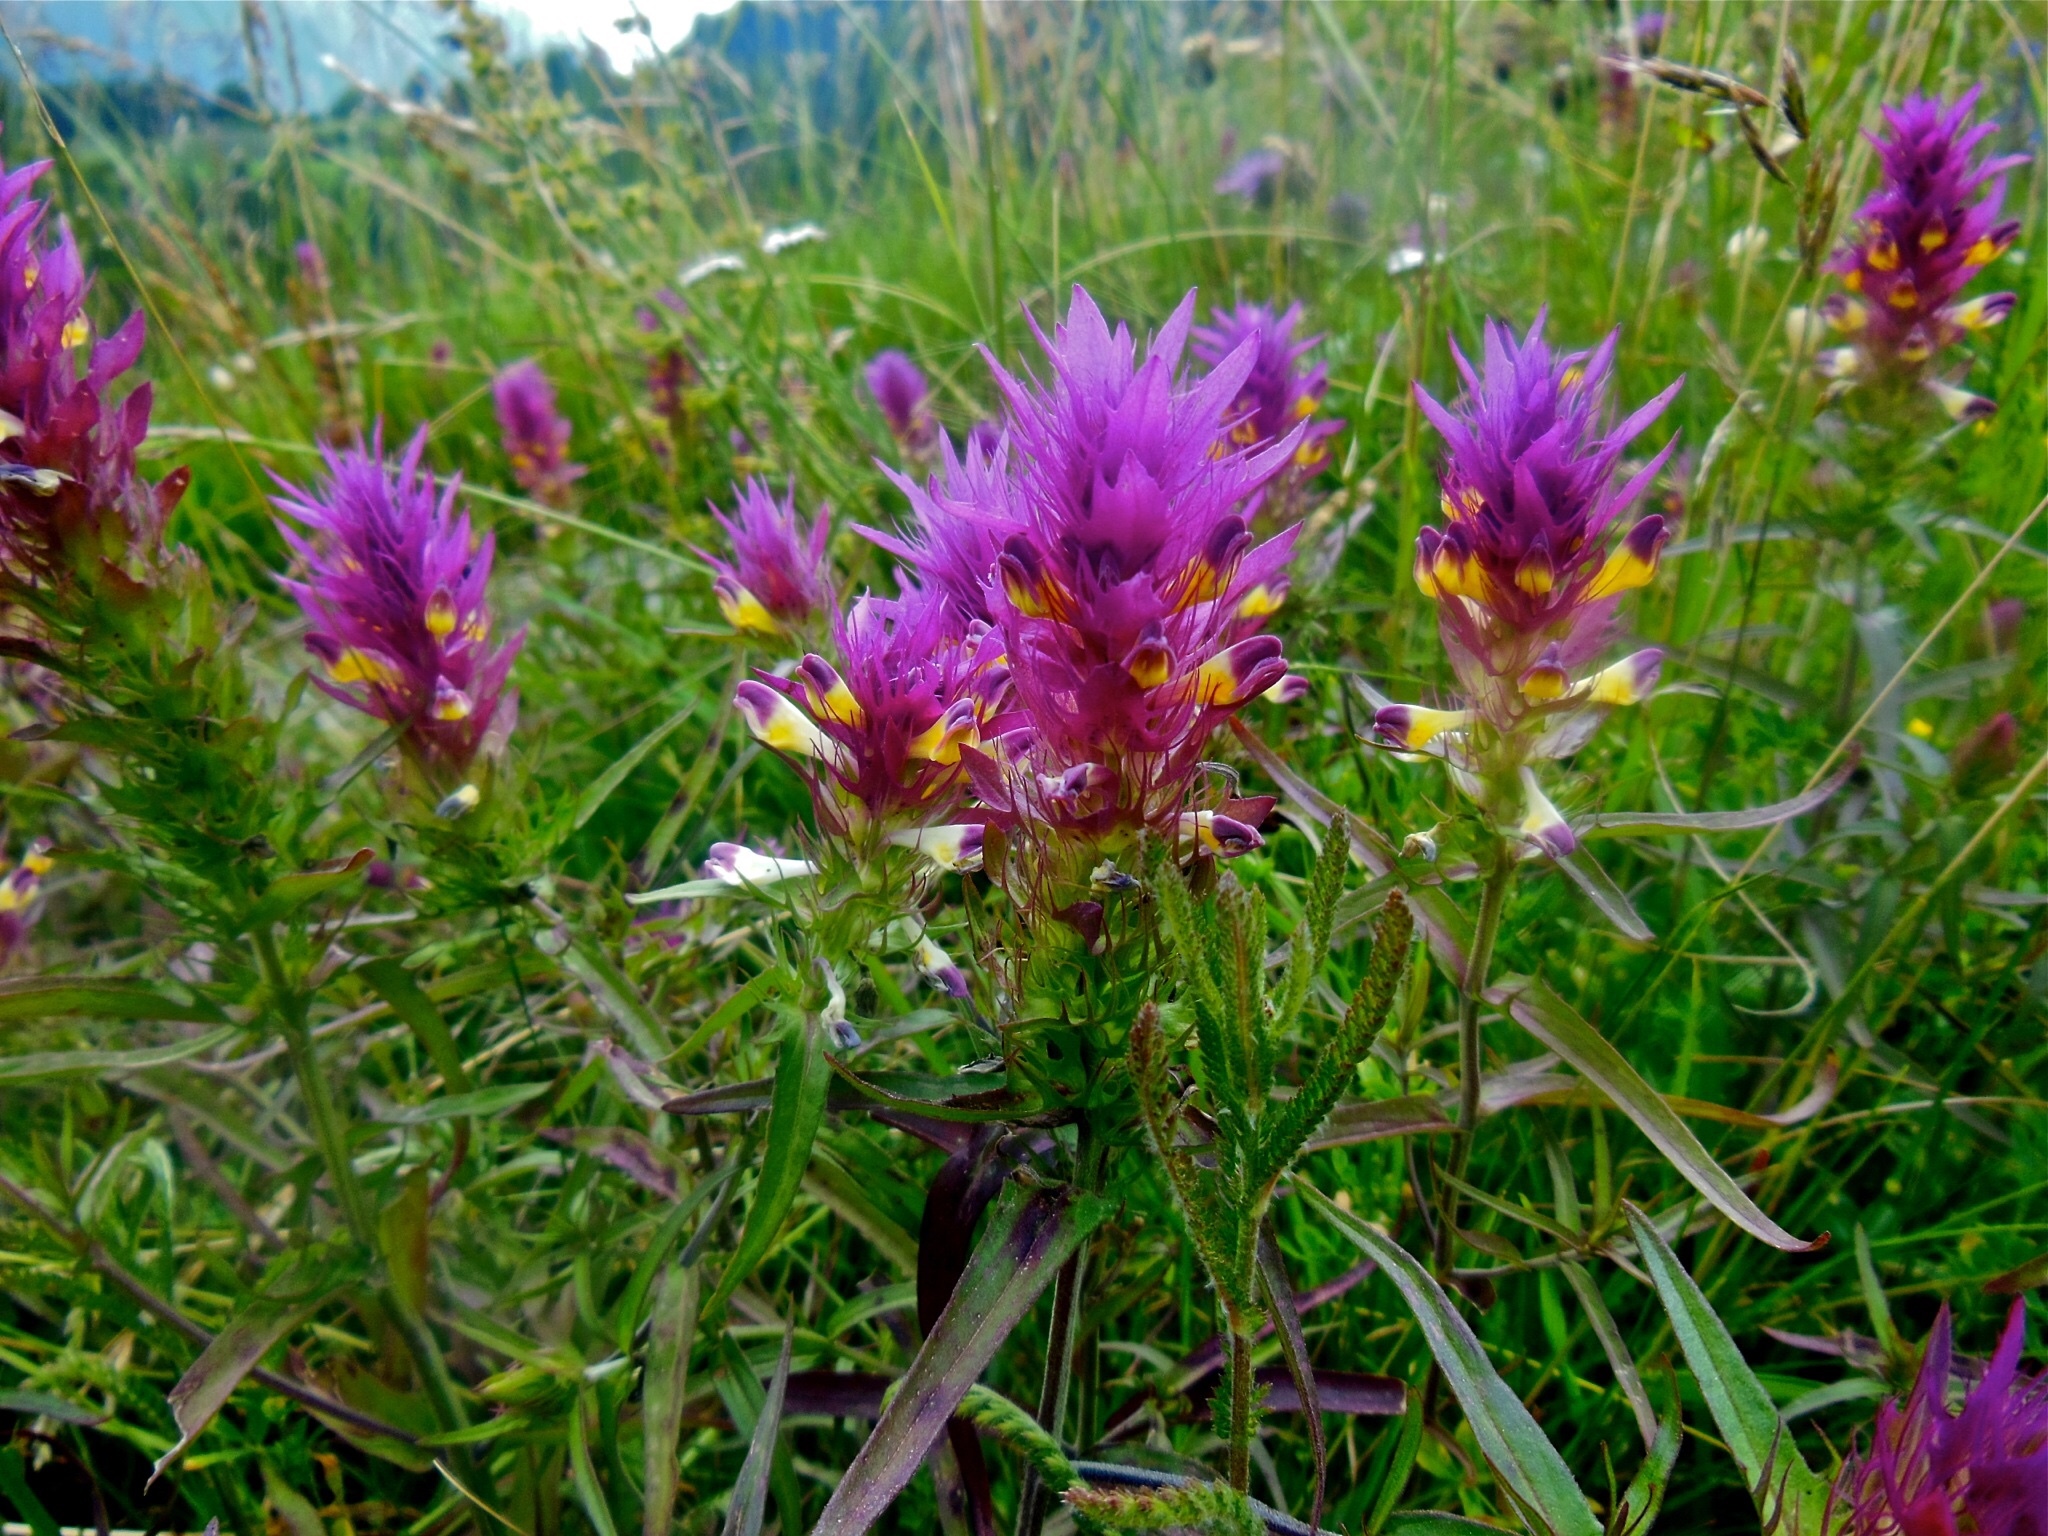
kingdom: Plantae
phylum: Tracheophyta
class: Magnoliopsida
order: Lamiales
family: Orobanchaceae
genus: Melampyrum
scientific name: Melampyrum arvense
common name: Field cow-wheat
